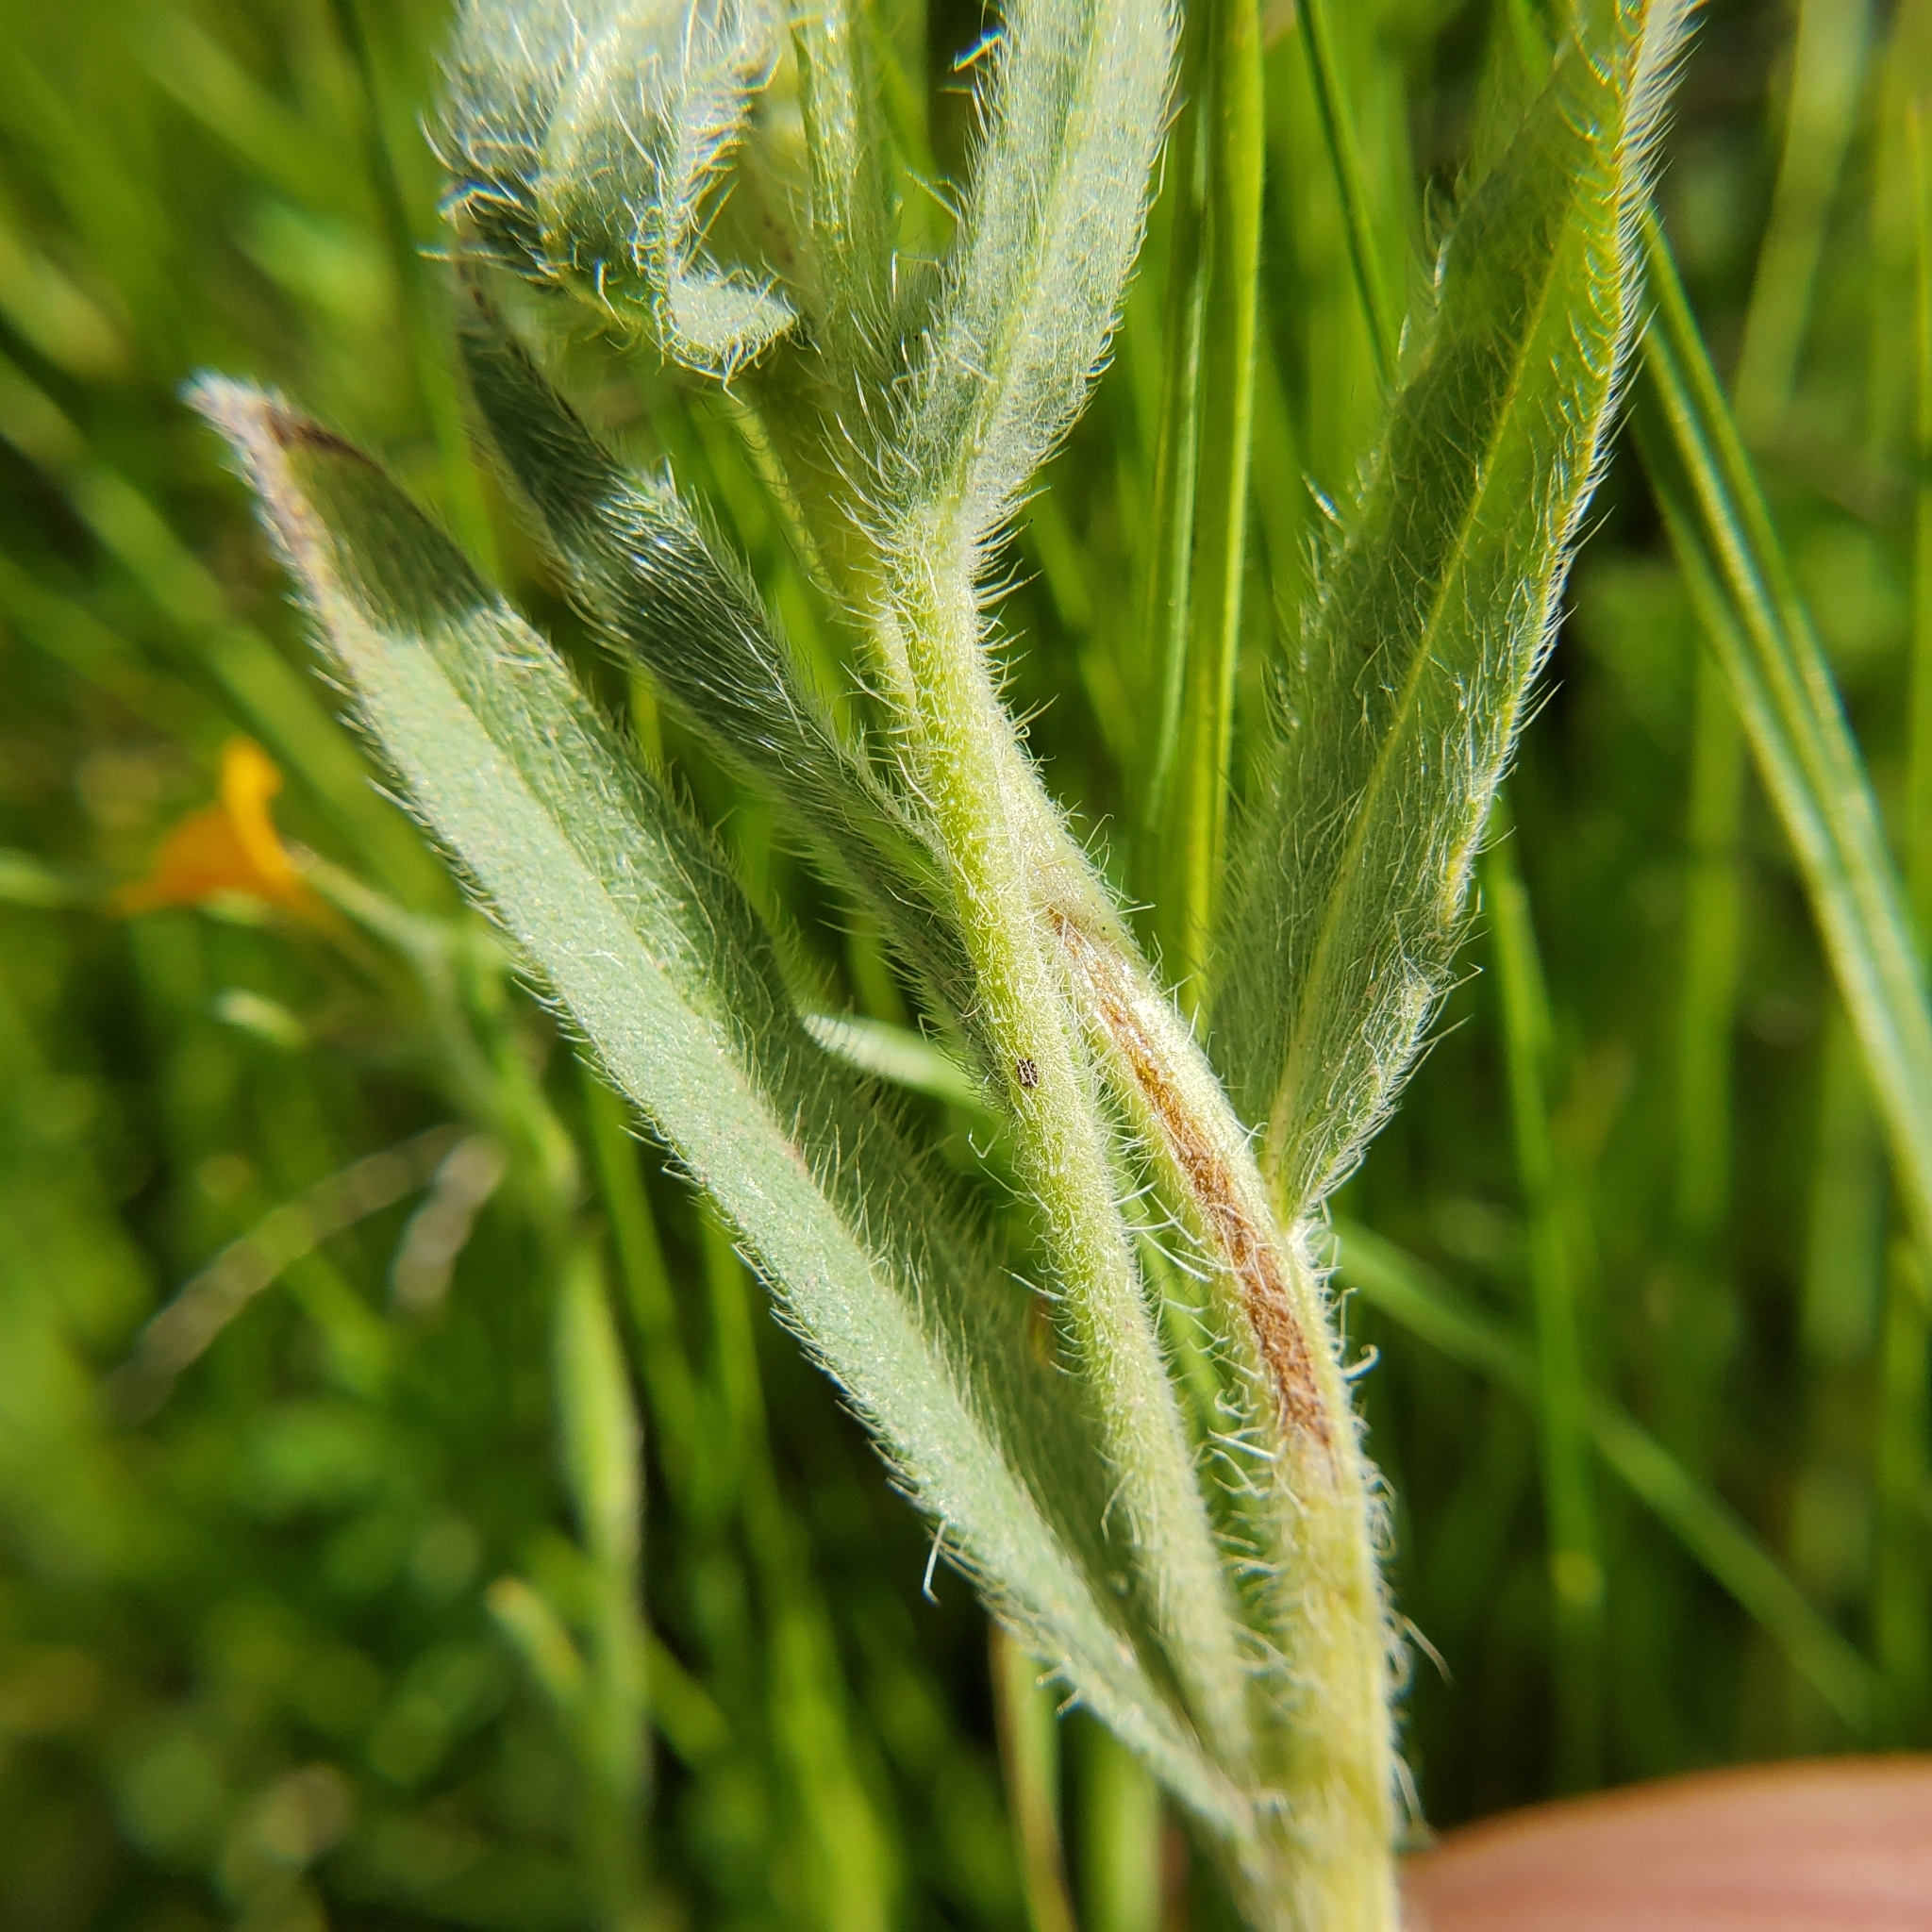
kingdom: Plantae
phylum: Tracheophyta
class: Magnoliopsida
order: Boraginales
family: Boraginaceae
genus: Amsinckia
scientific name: Amsinckia menziesii
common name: Menzies' fiddleneck
